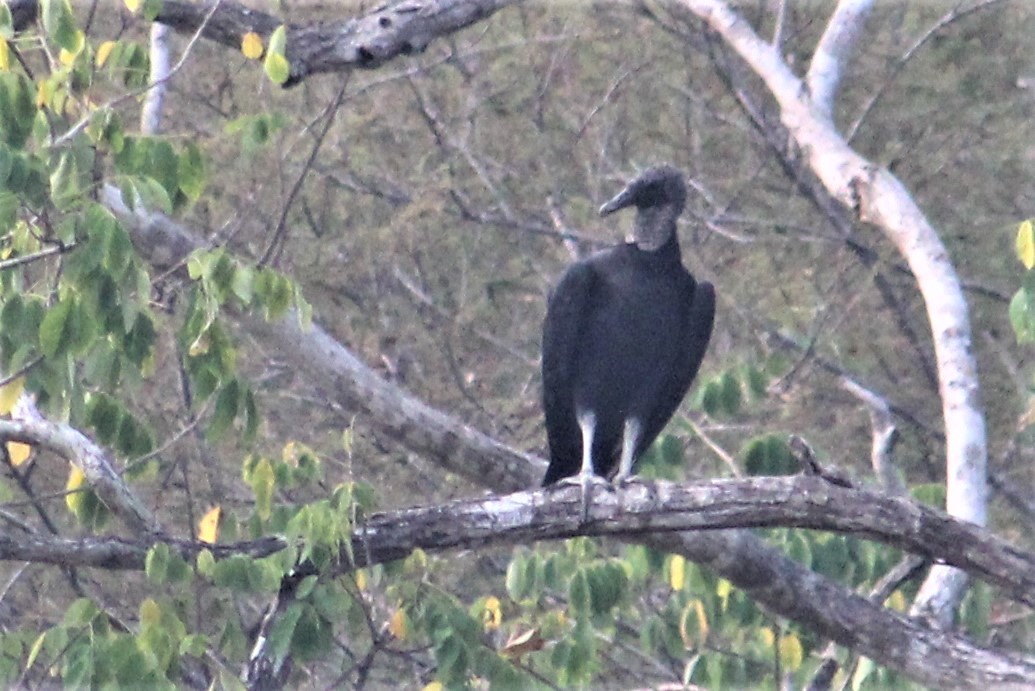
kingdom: Animalia
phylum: Chordata
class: Aves
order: Accipitriformes
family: Cathartidae
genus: Coragyps
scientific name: Coragyps atratus
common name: Black vulture
